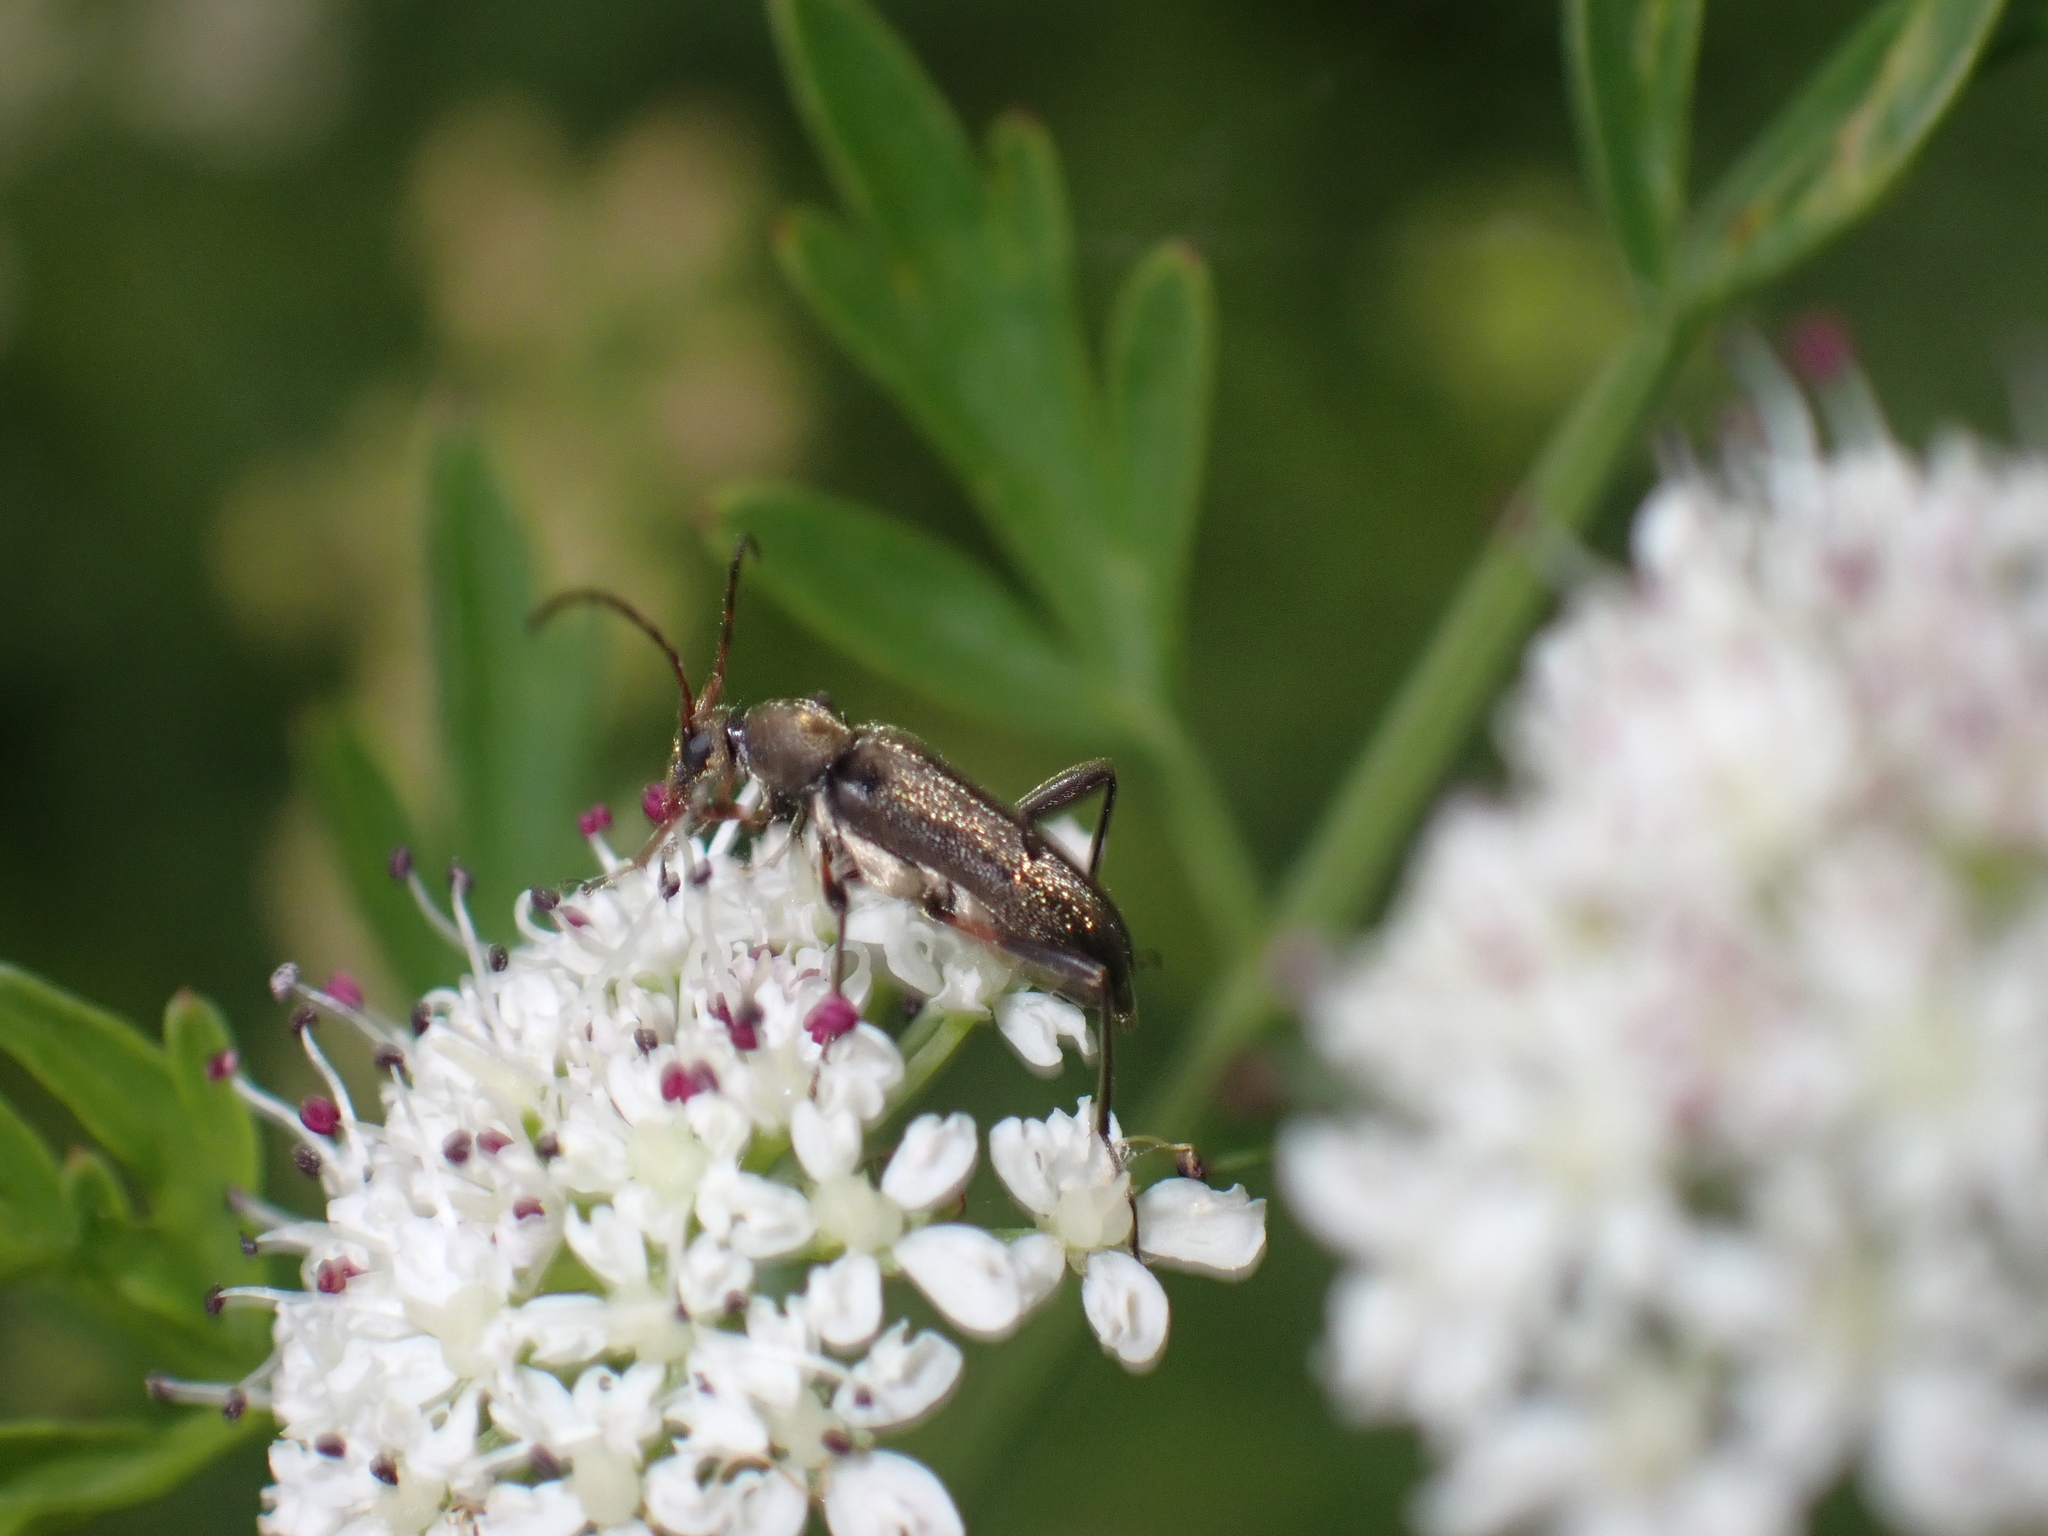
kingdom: Animalia
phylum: Arthropoda
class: Insecta
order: Coleoptera
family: Cerambycidae
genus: Grammoptera
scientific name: Grammoptera ruficornis
